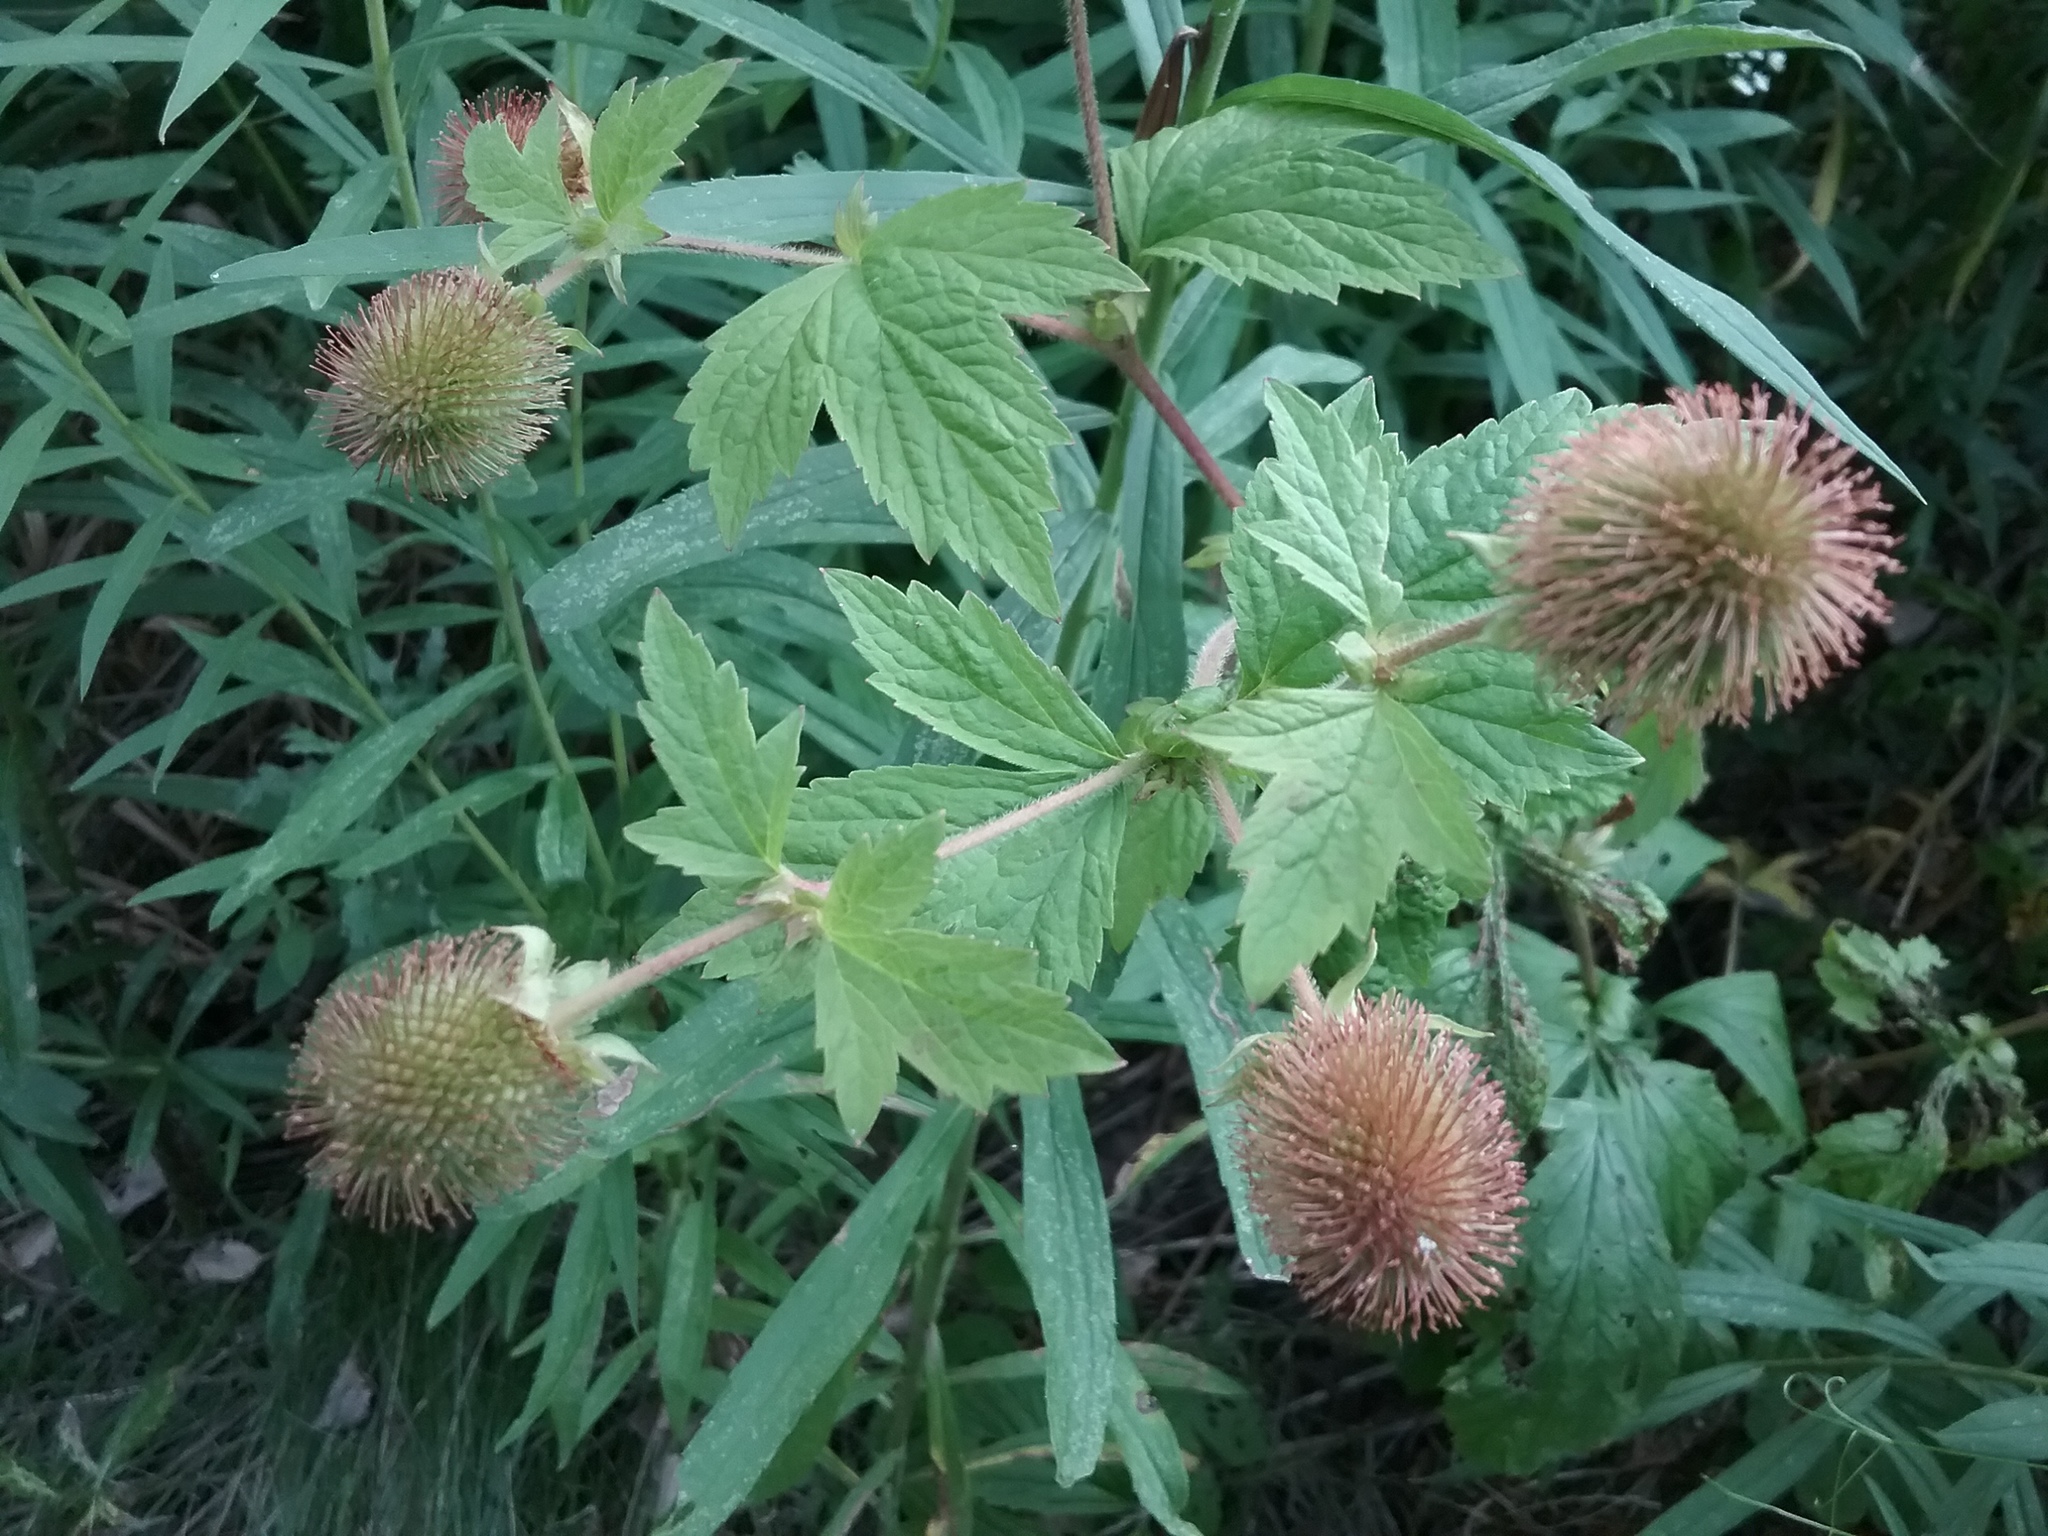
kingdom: Plantae
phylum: Tracheophyta
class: Magnoliopsida
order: Rosales
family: Rosaceae
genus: Geum
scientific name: Geum laciniatum
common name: Rough avens
